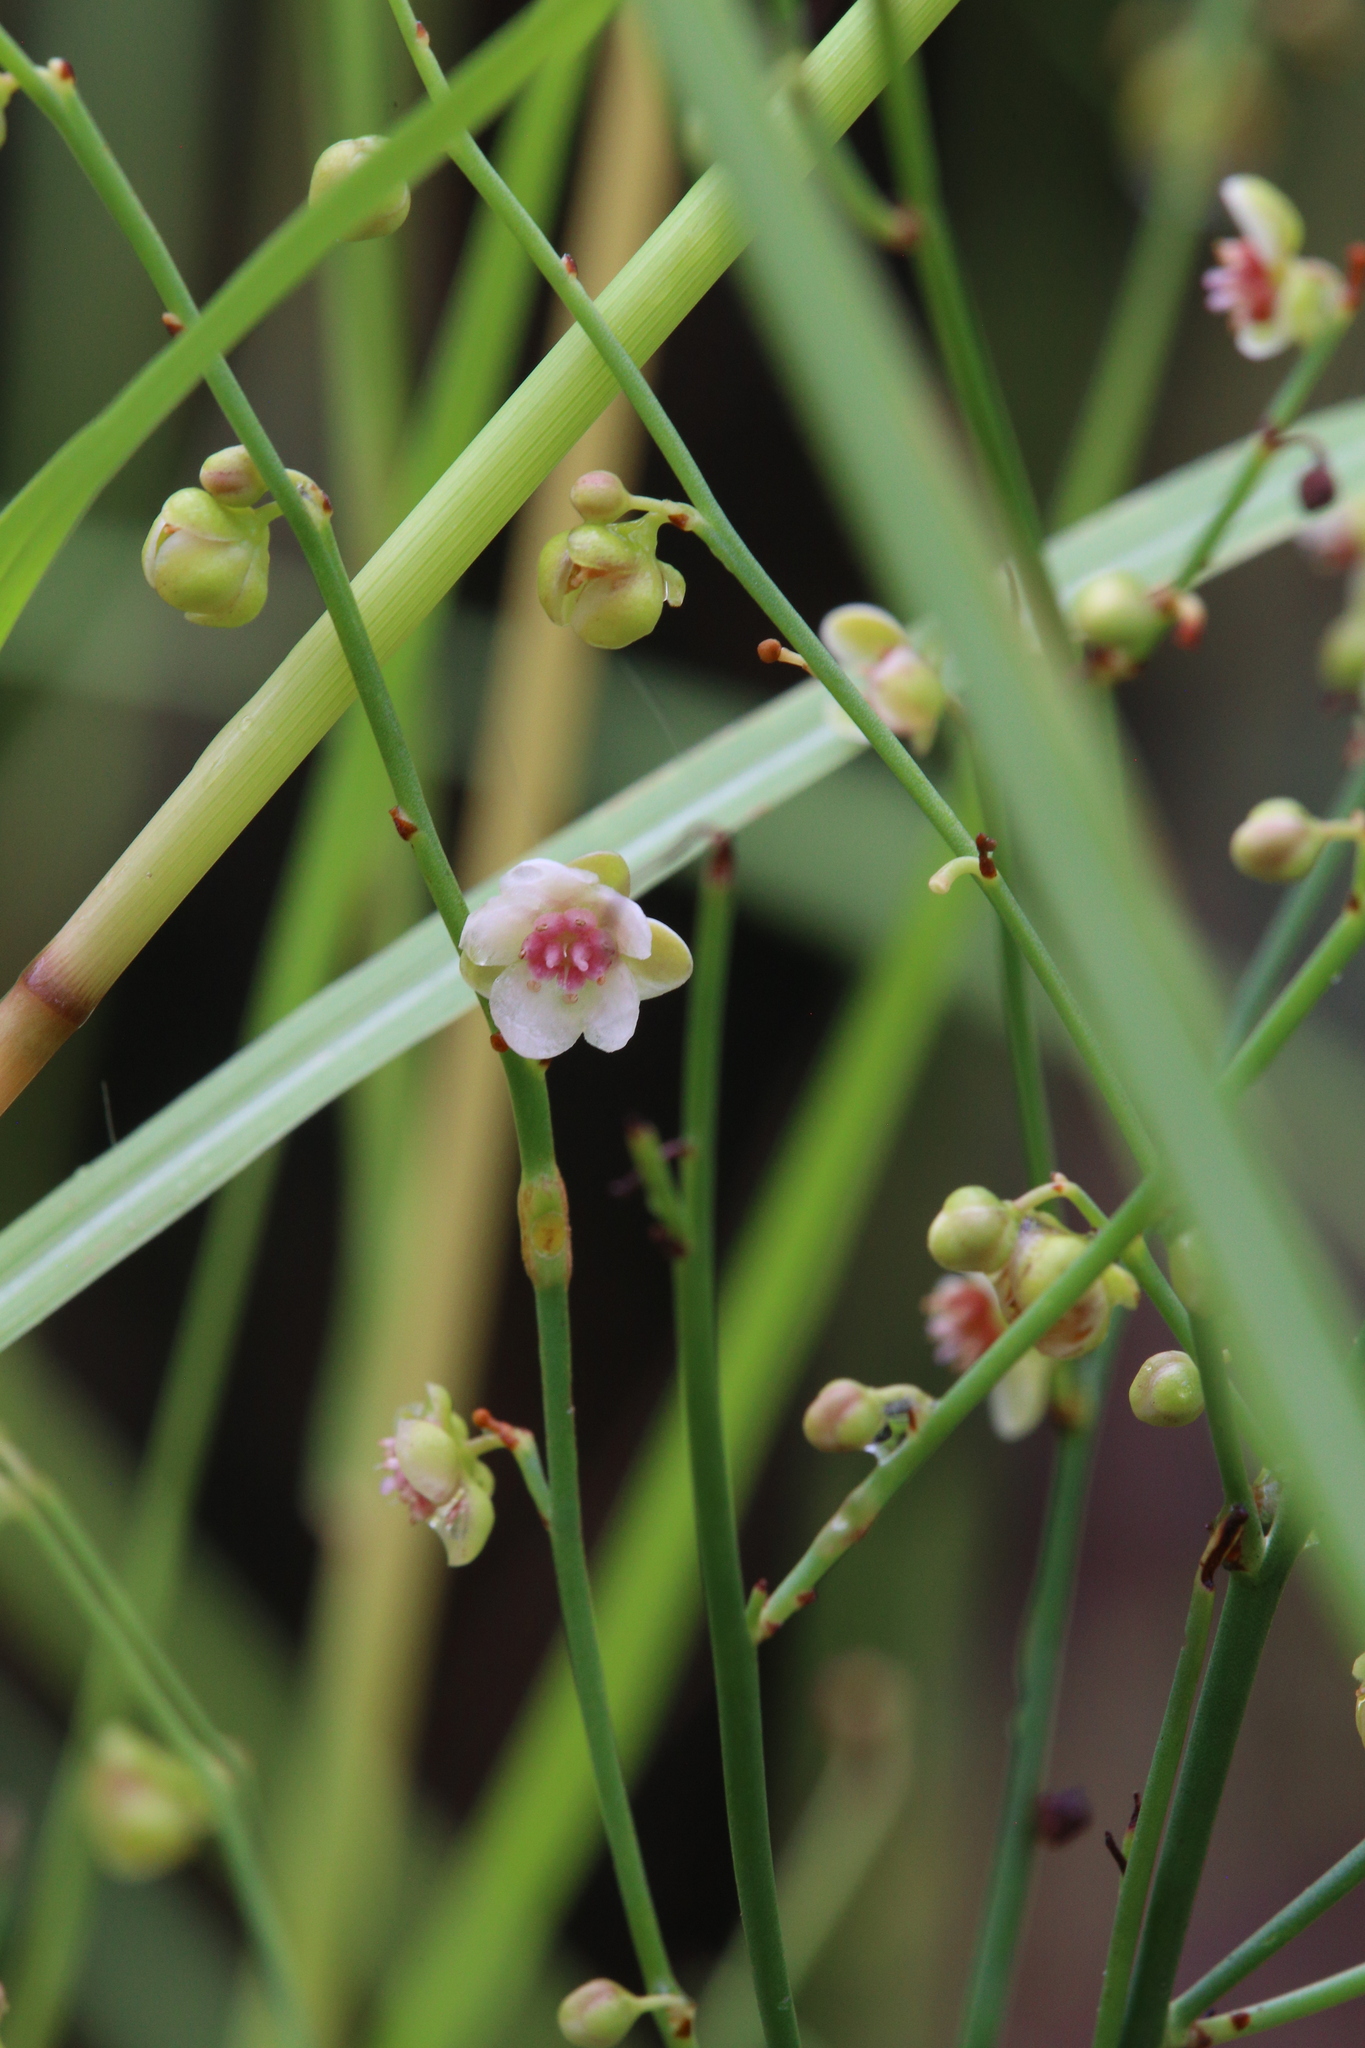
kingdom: Plantae
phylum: Tracheophyta
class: Magnoliopsida
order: Dilleniales
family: Dilleniaceae
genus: Hibbertia
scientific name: Hibbertia juncea
